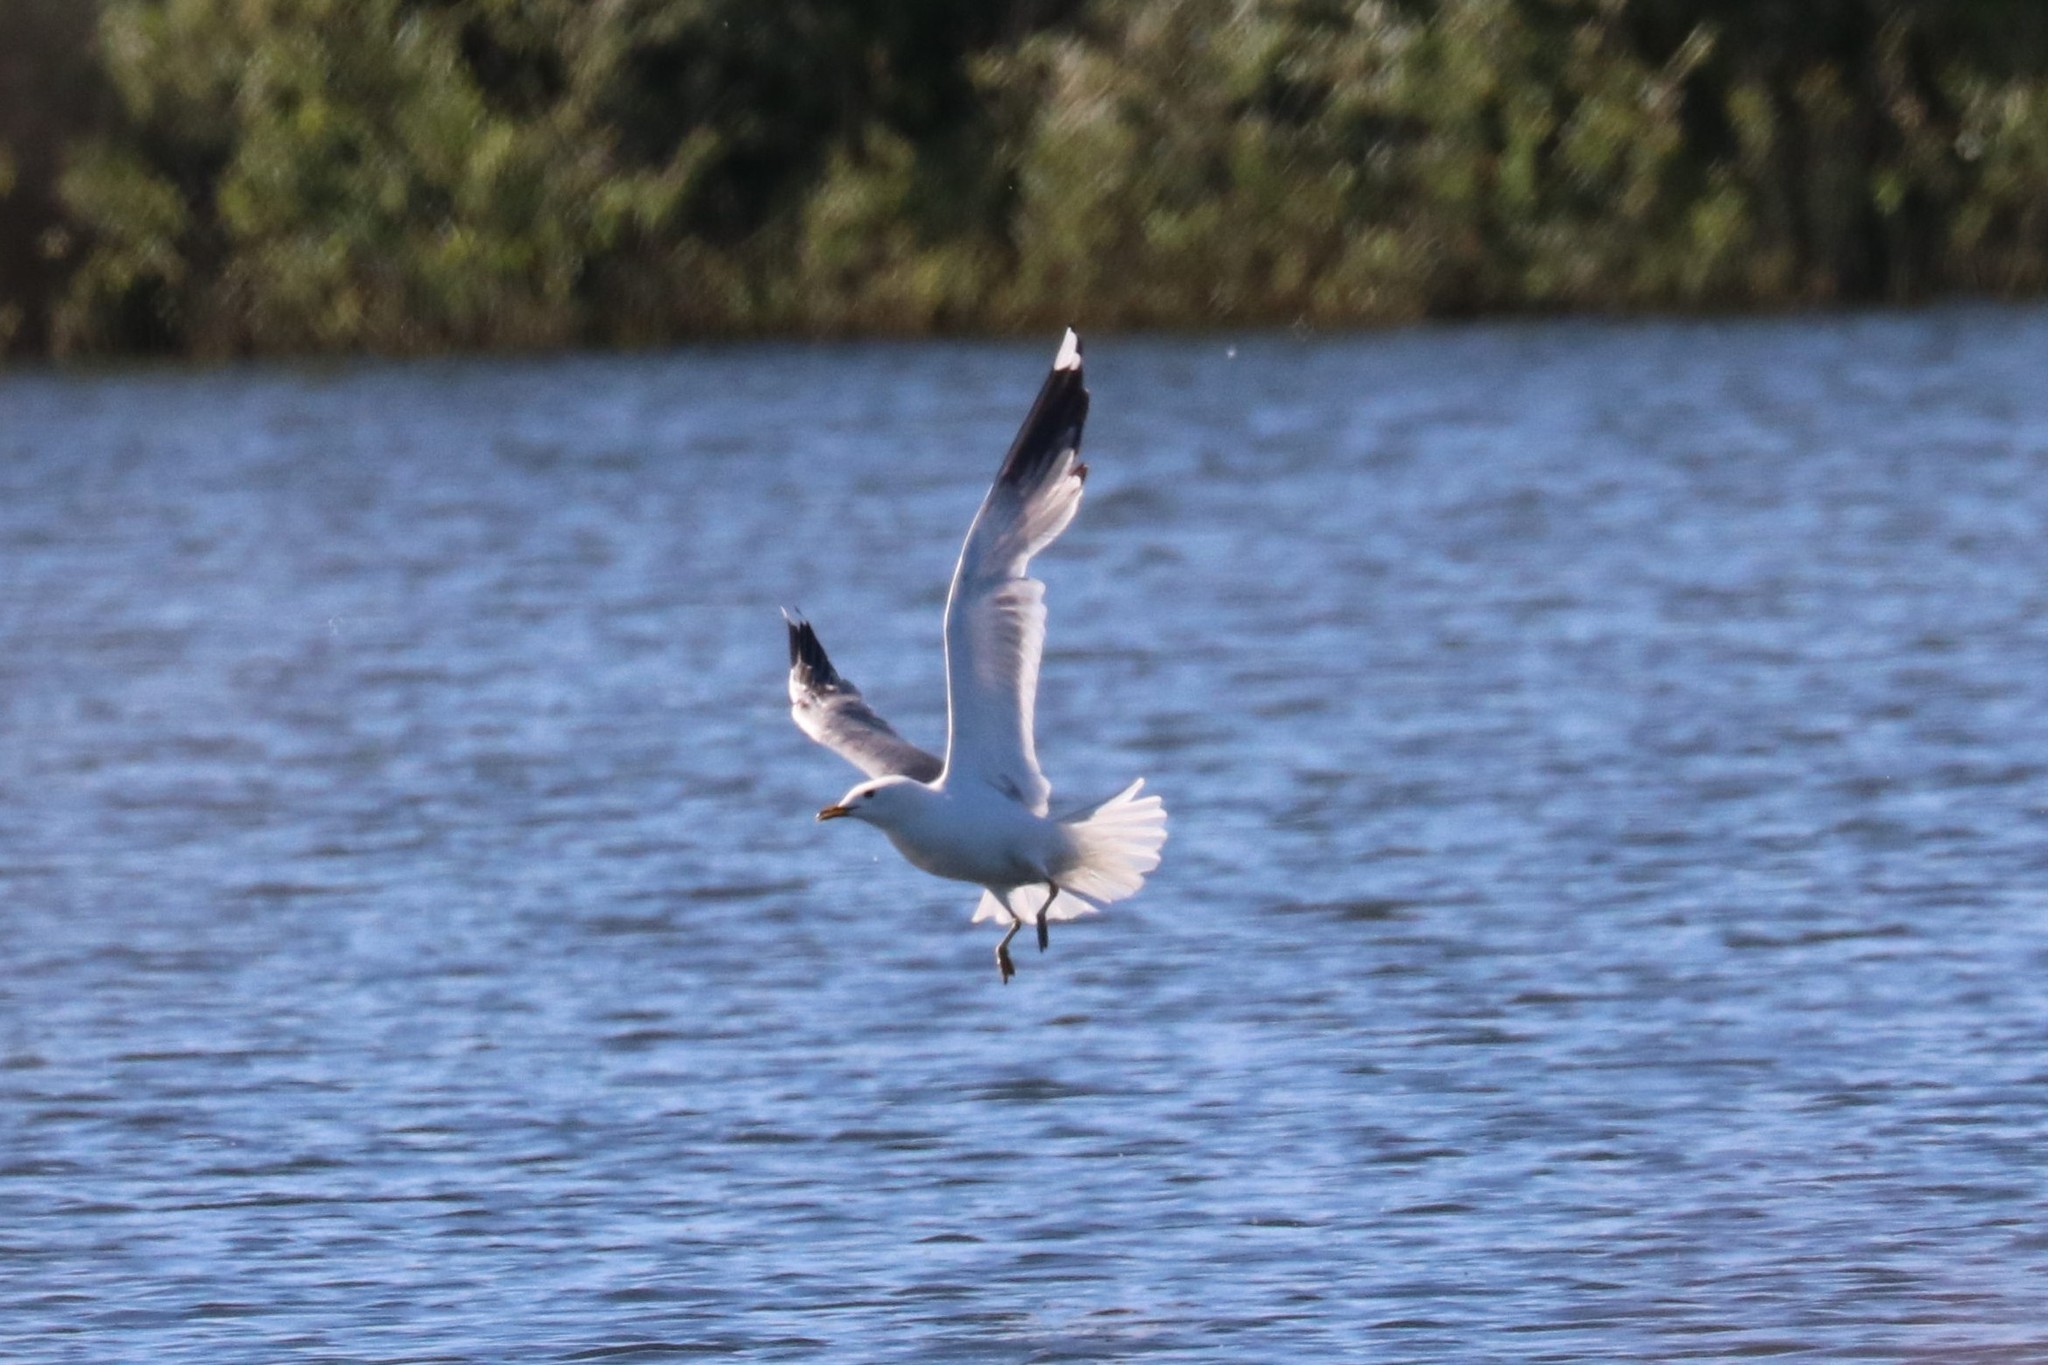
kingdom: Animalia
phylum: Chordata
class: Aves
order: Charadriiformes
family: Laridae
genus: Larus
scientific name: Larus canus
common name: Mew gull
